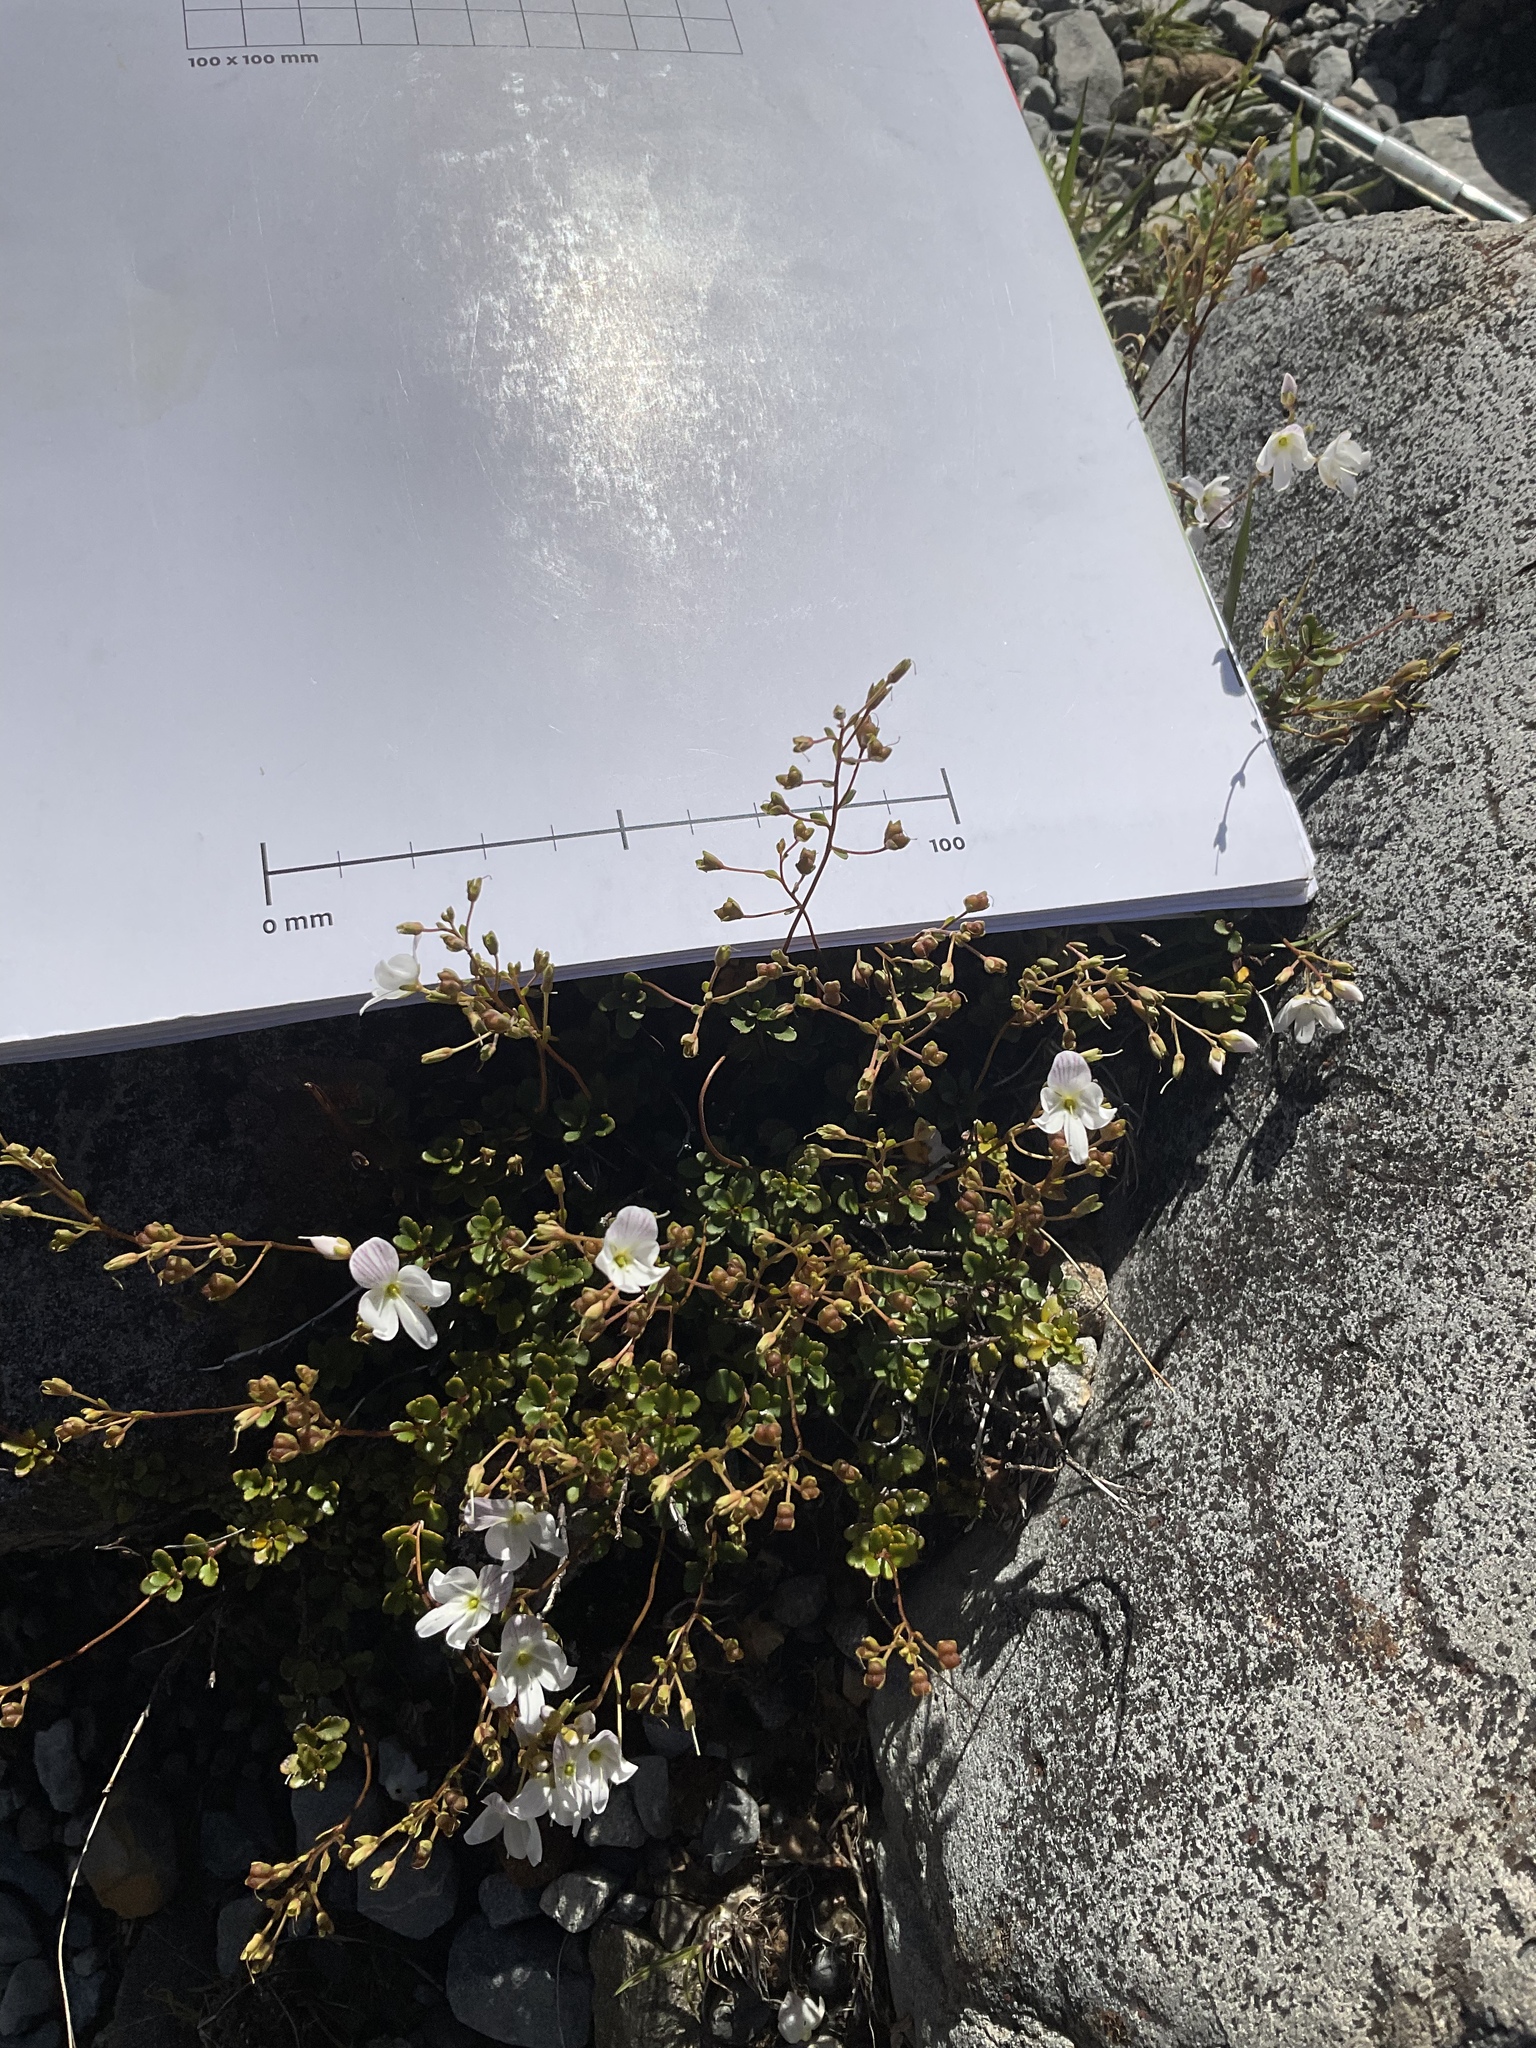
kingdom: Plantae
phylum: Tracheophyta
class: Magnoliopsida
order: Lamiales
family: Plantaginaceae
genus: Veronica
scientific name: Veronica lyallii
